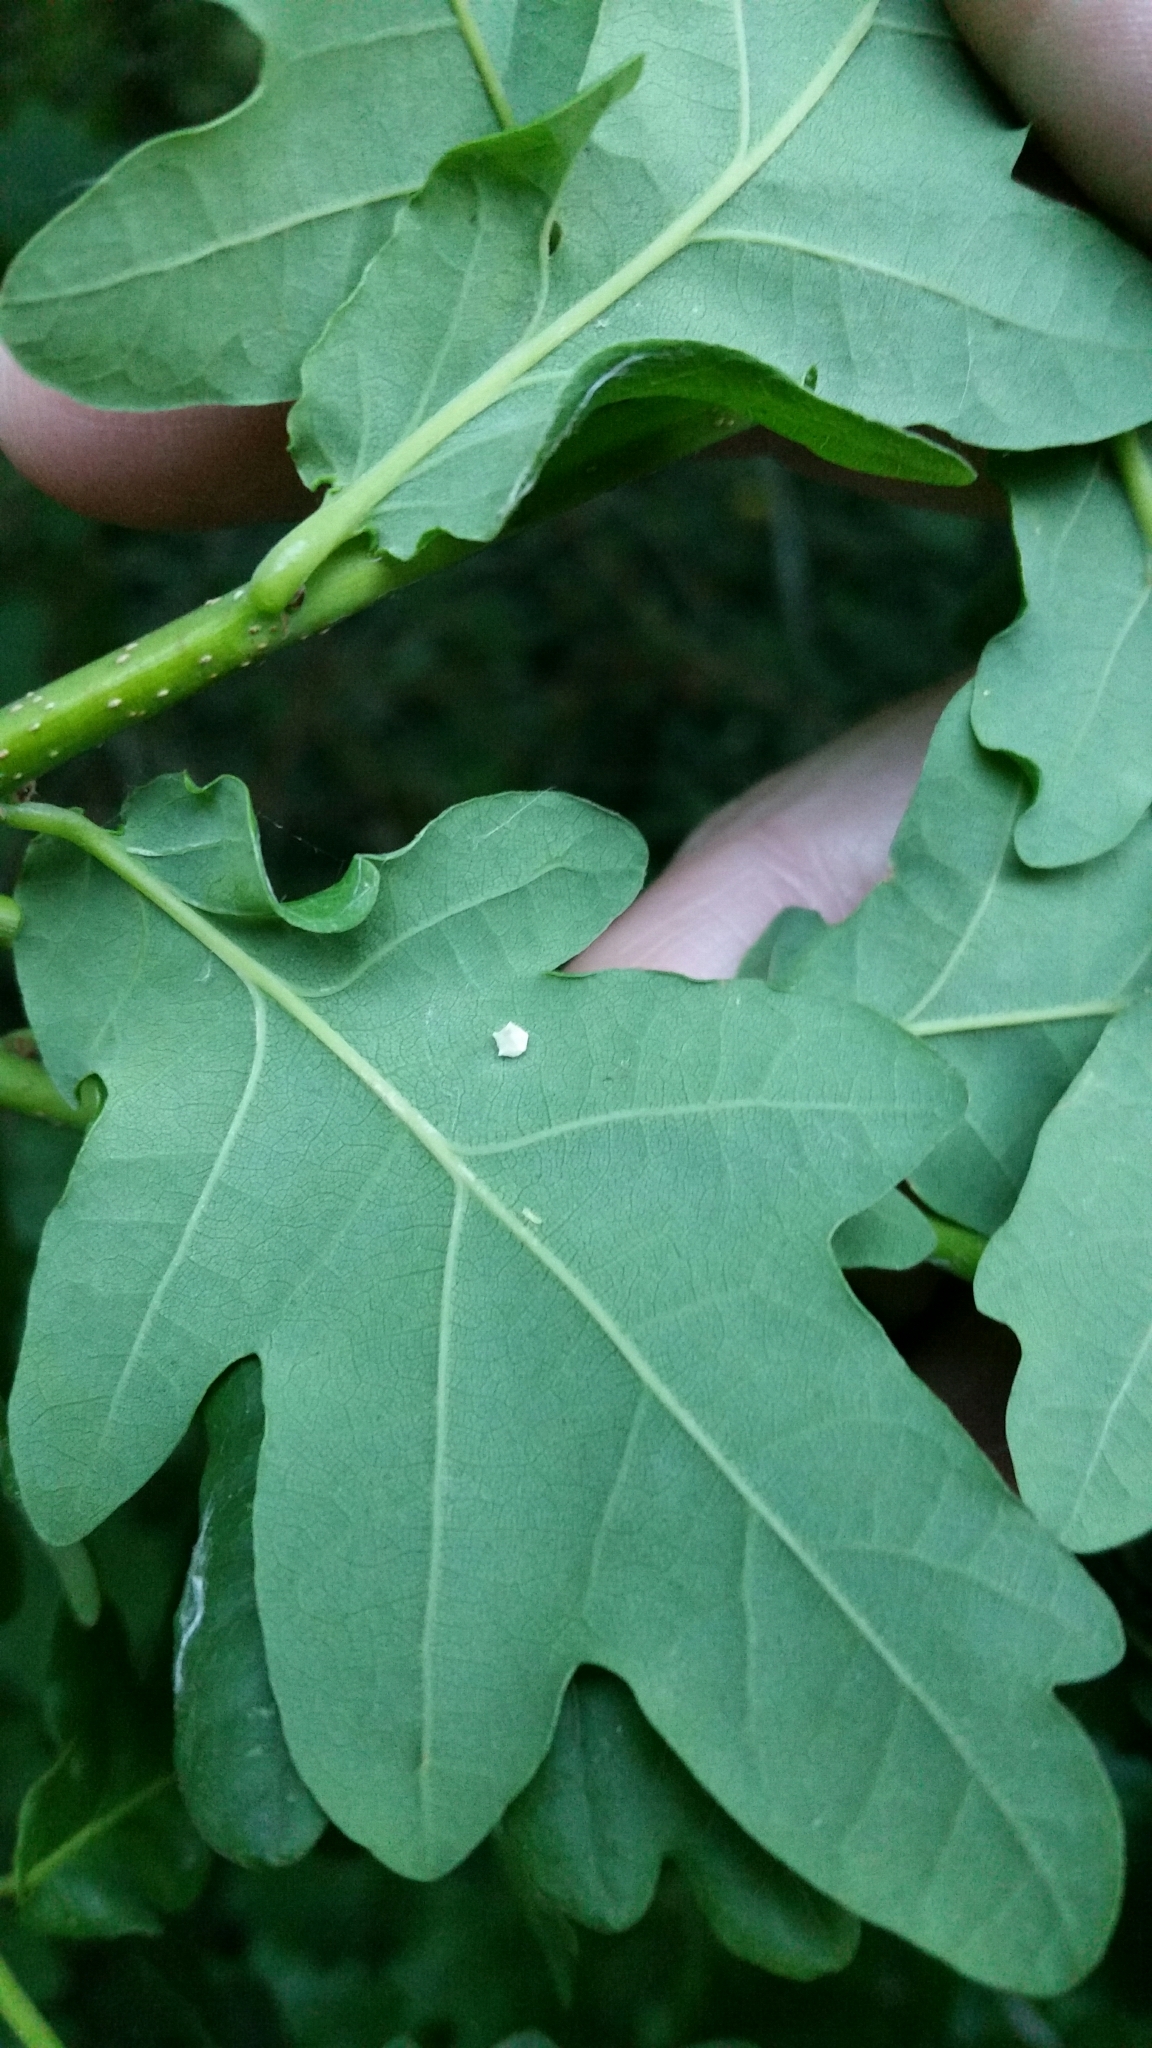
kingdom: Animalia
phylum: Arthropoda
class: Arachnida
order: Araneae
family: Theridiidae
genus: Paidiscura
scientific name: Paidiscura pallens
